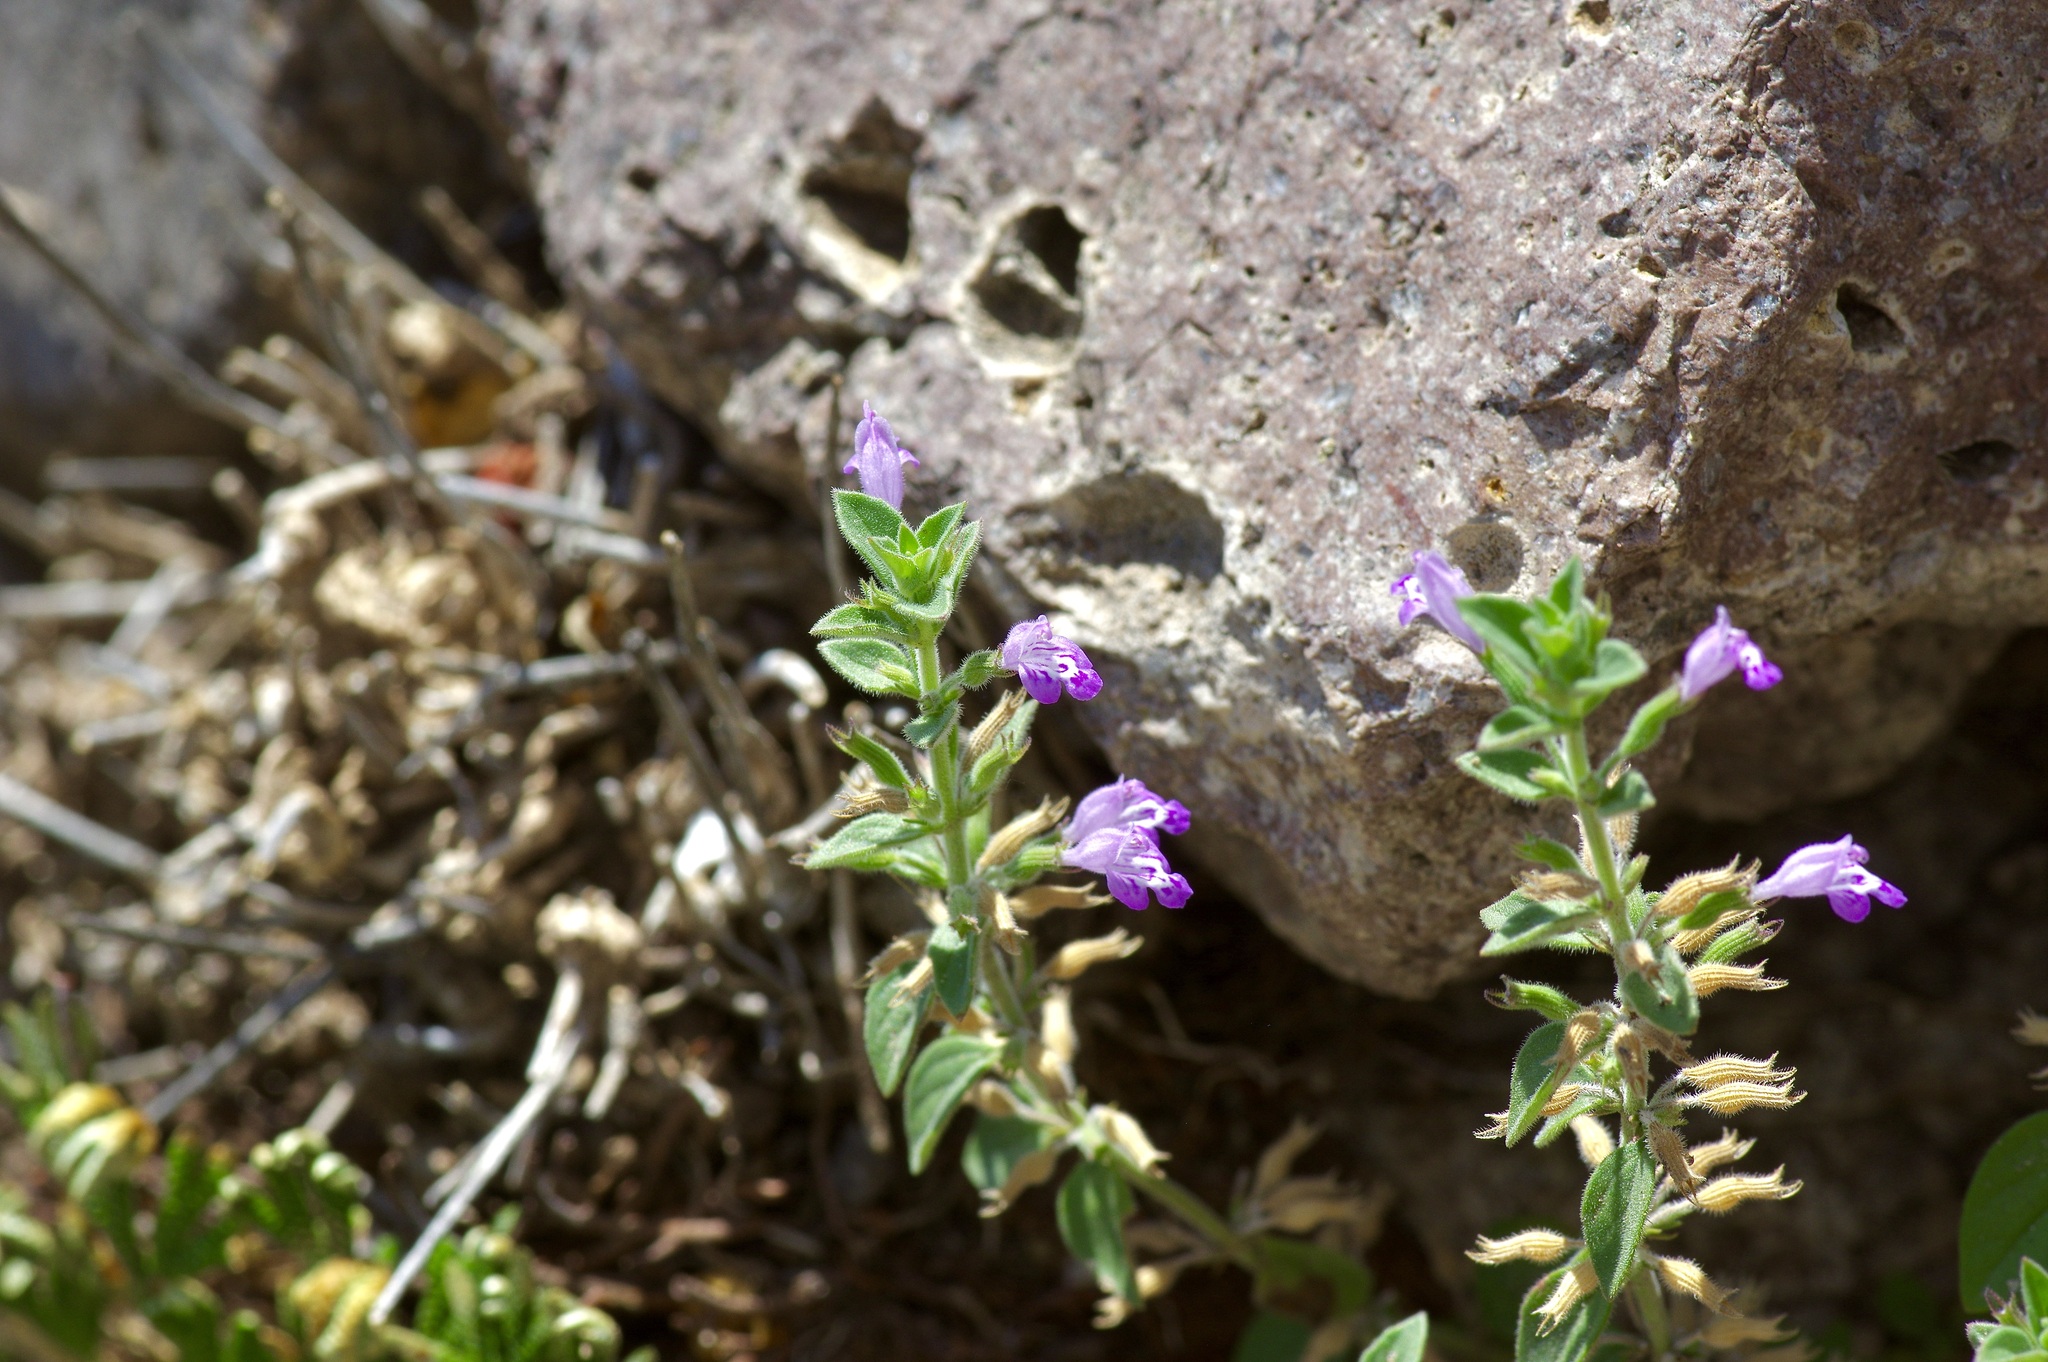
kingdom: Plantae
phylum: Tracheophyta
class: Magnoliopsida
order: Lamiales
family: Lamiaceae
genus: Hedeoma
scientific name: Hedeoma nana
